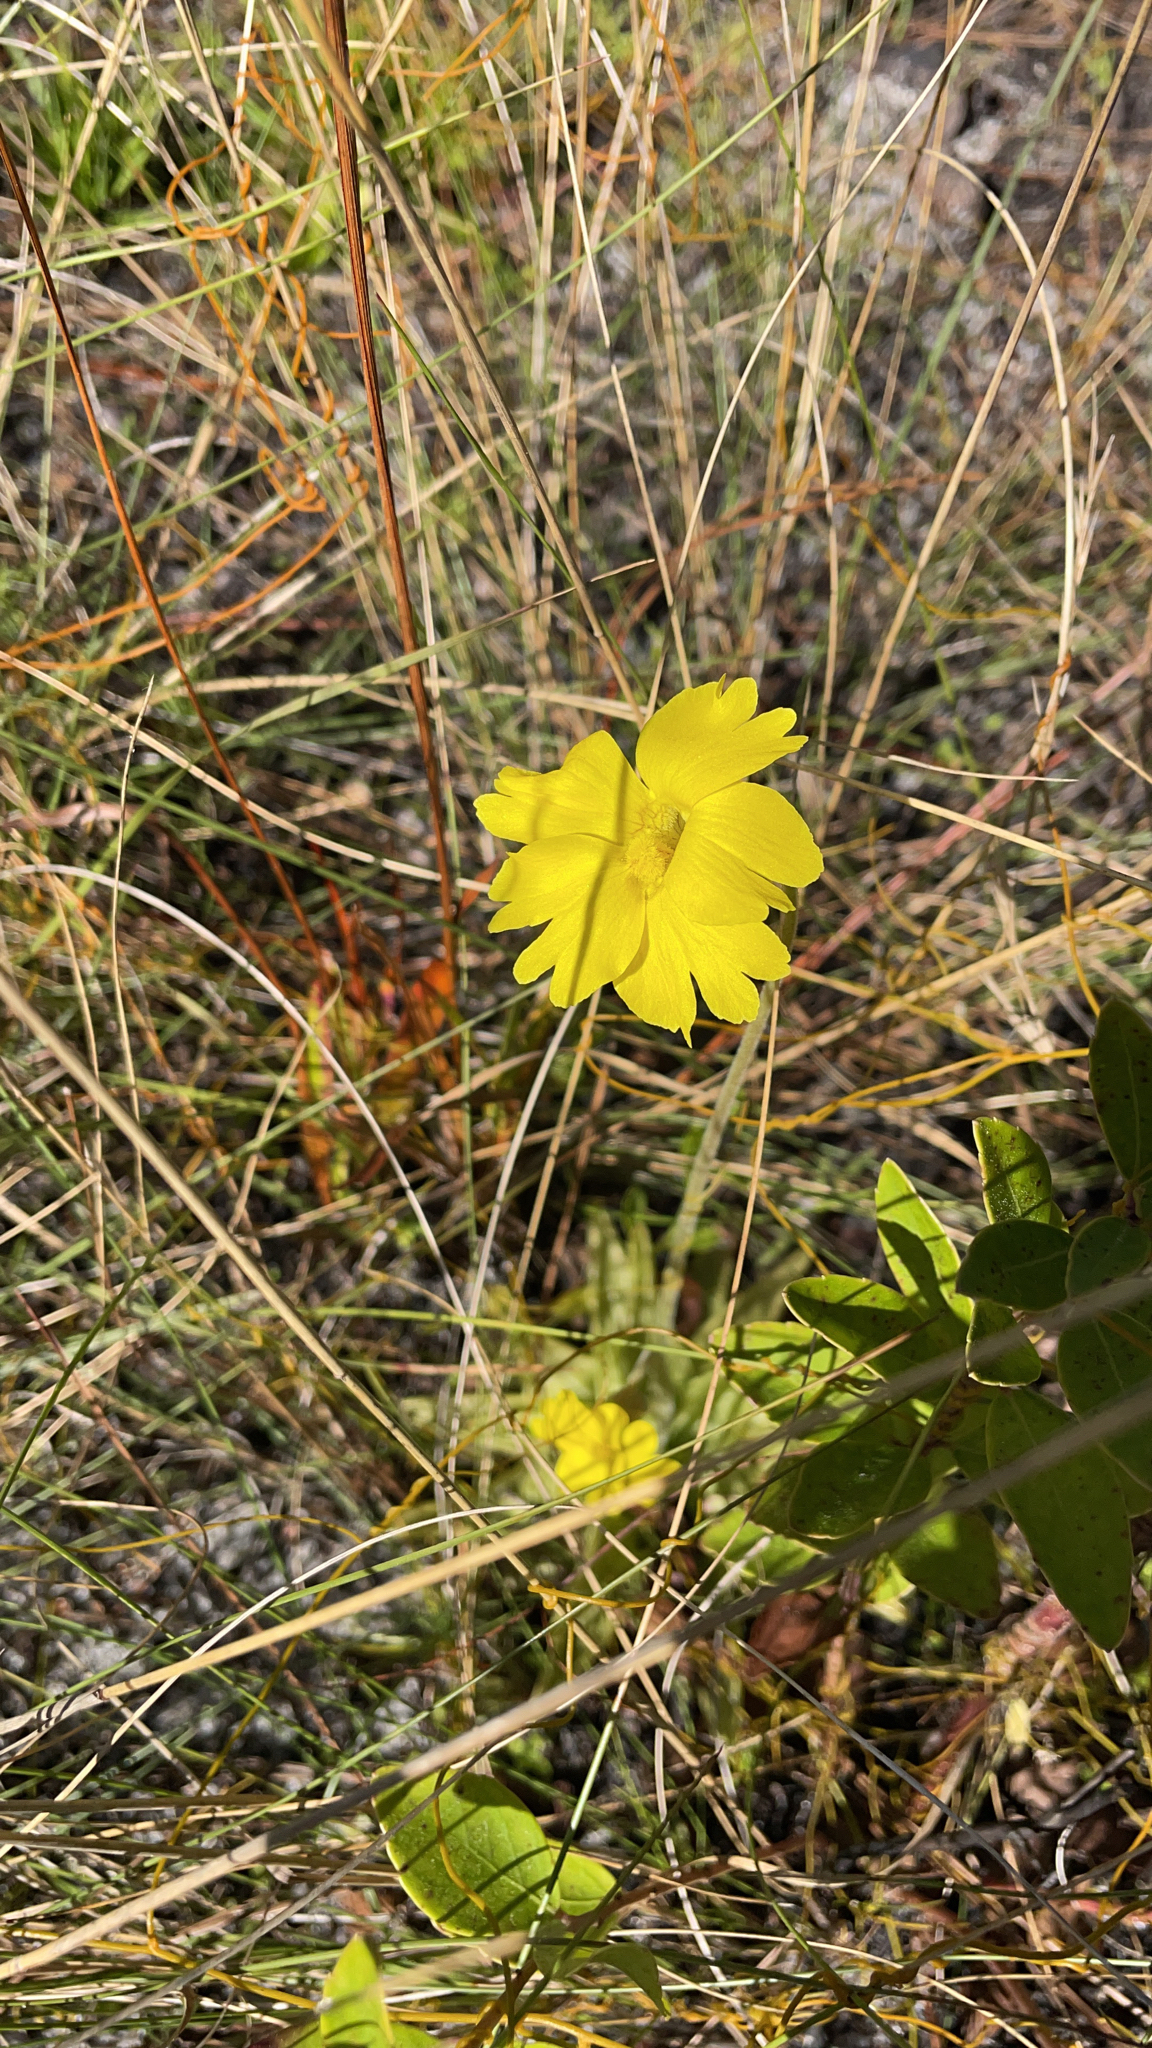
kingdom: Plantae
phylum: Tracheophyta
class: Magnoliopsida
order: Lamiales
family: Lentibulariaceae
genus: Pinguicula
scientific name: Pinguicula lutea
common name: Yellow butterwort
